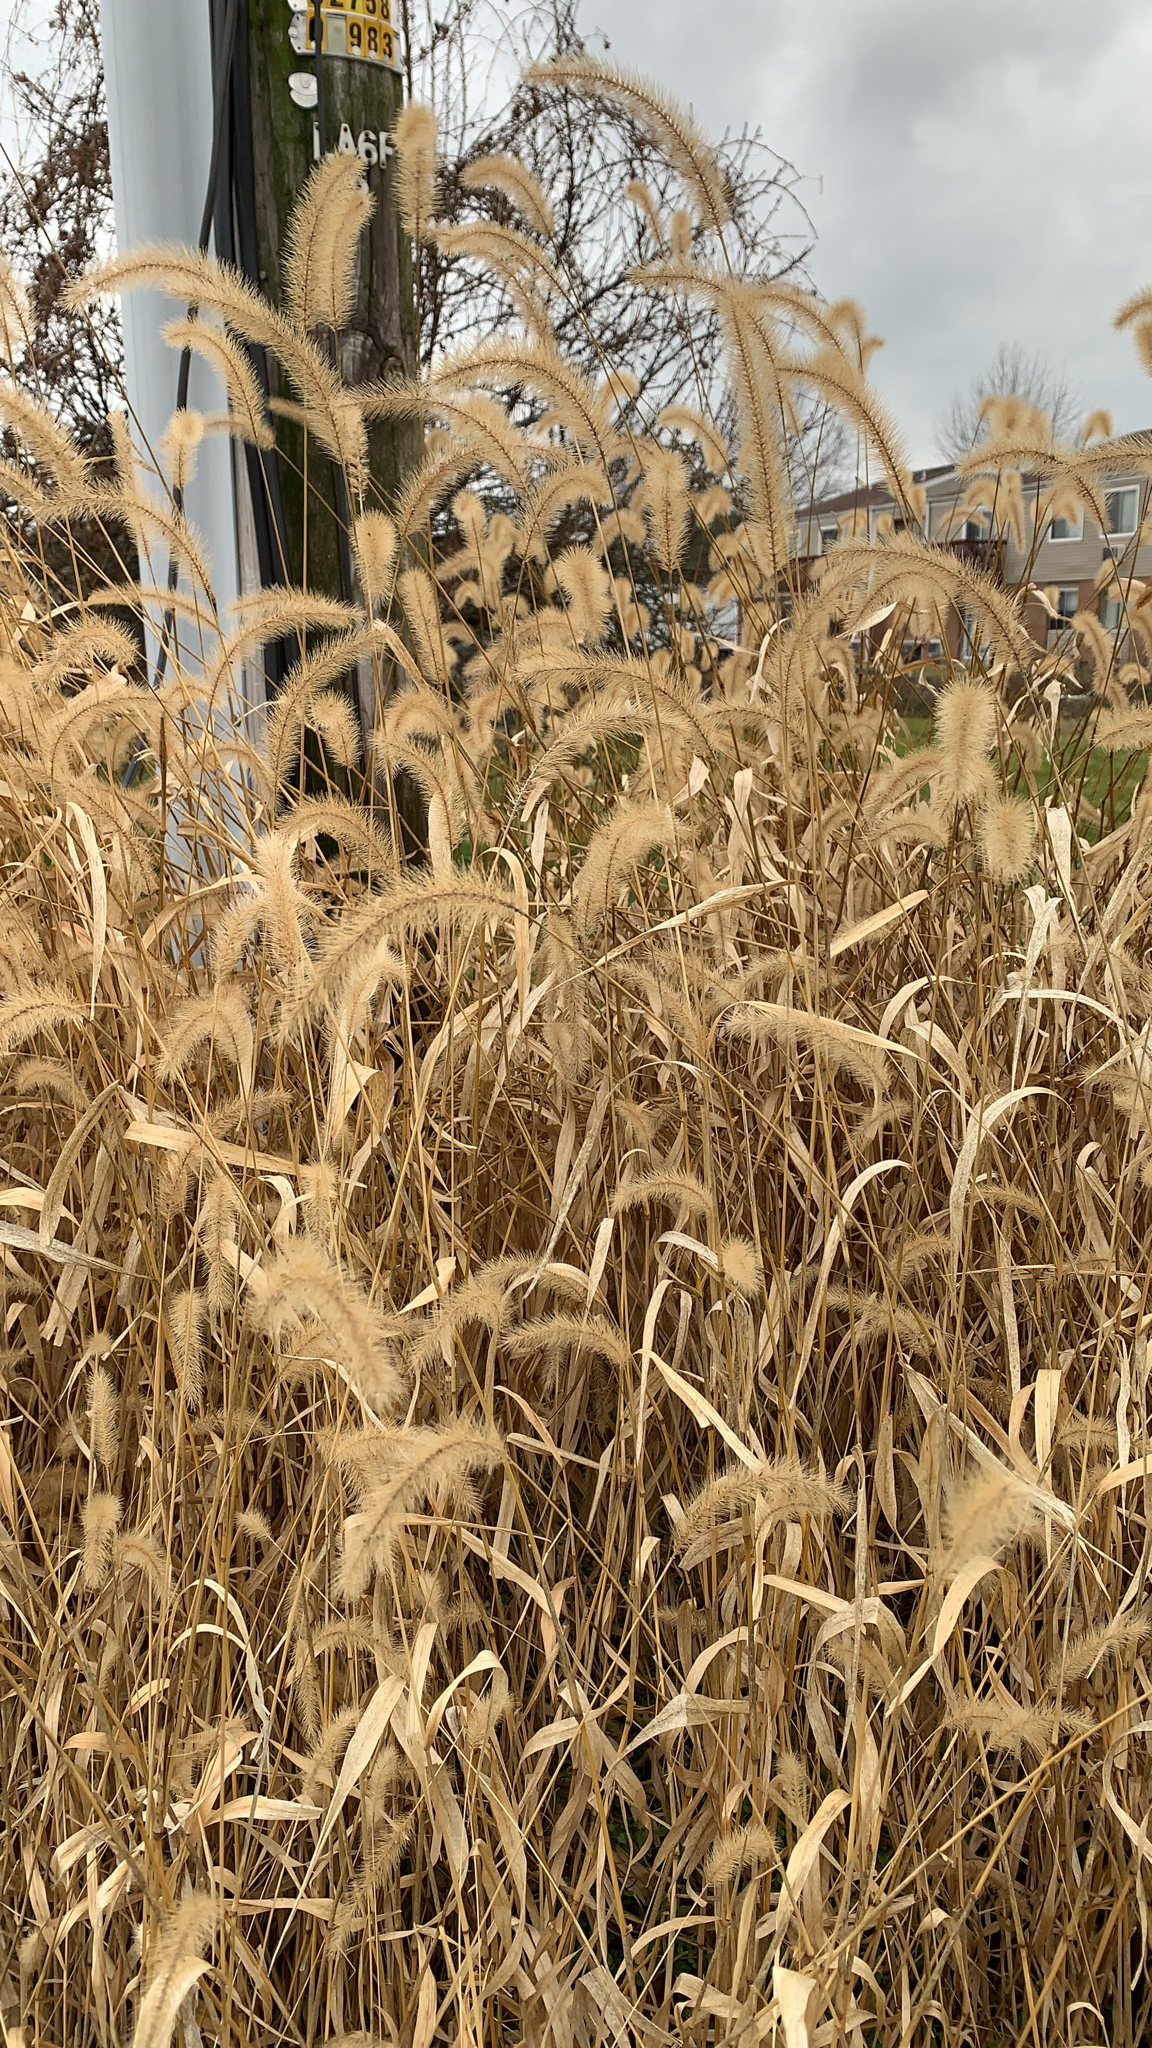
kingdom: Plantae
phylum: Tracheophyta
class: Liliopsida
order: Poales
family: Poaceae
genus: Setaria
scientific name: Setaria faberi
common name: Nodding bristle-grass
